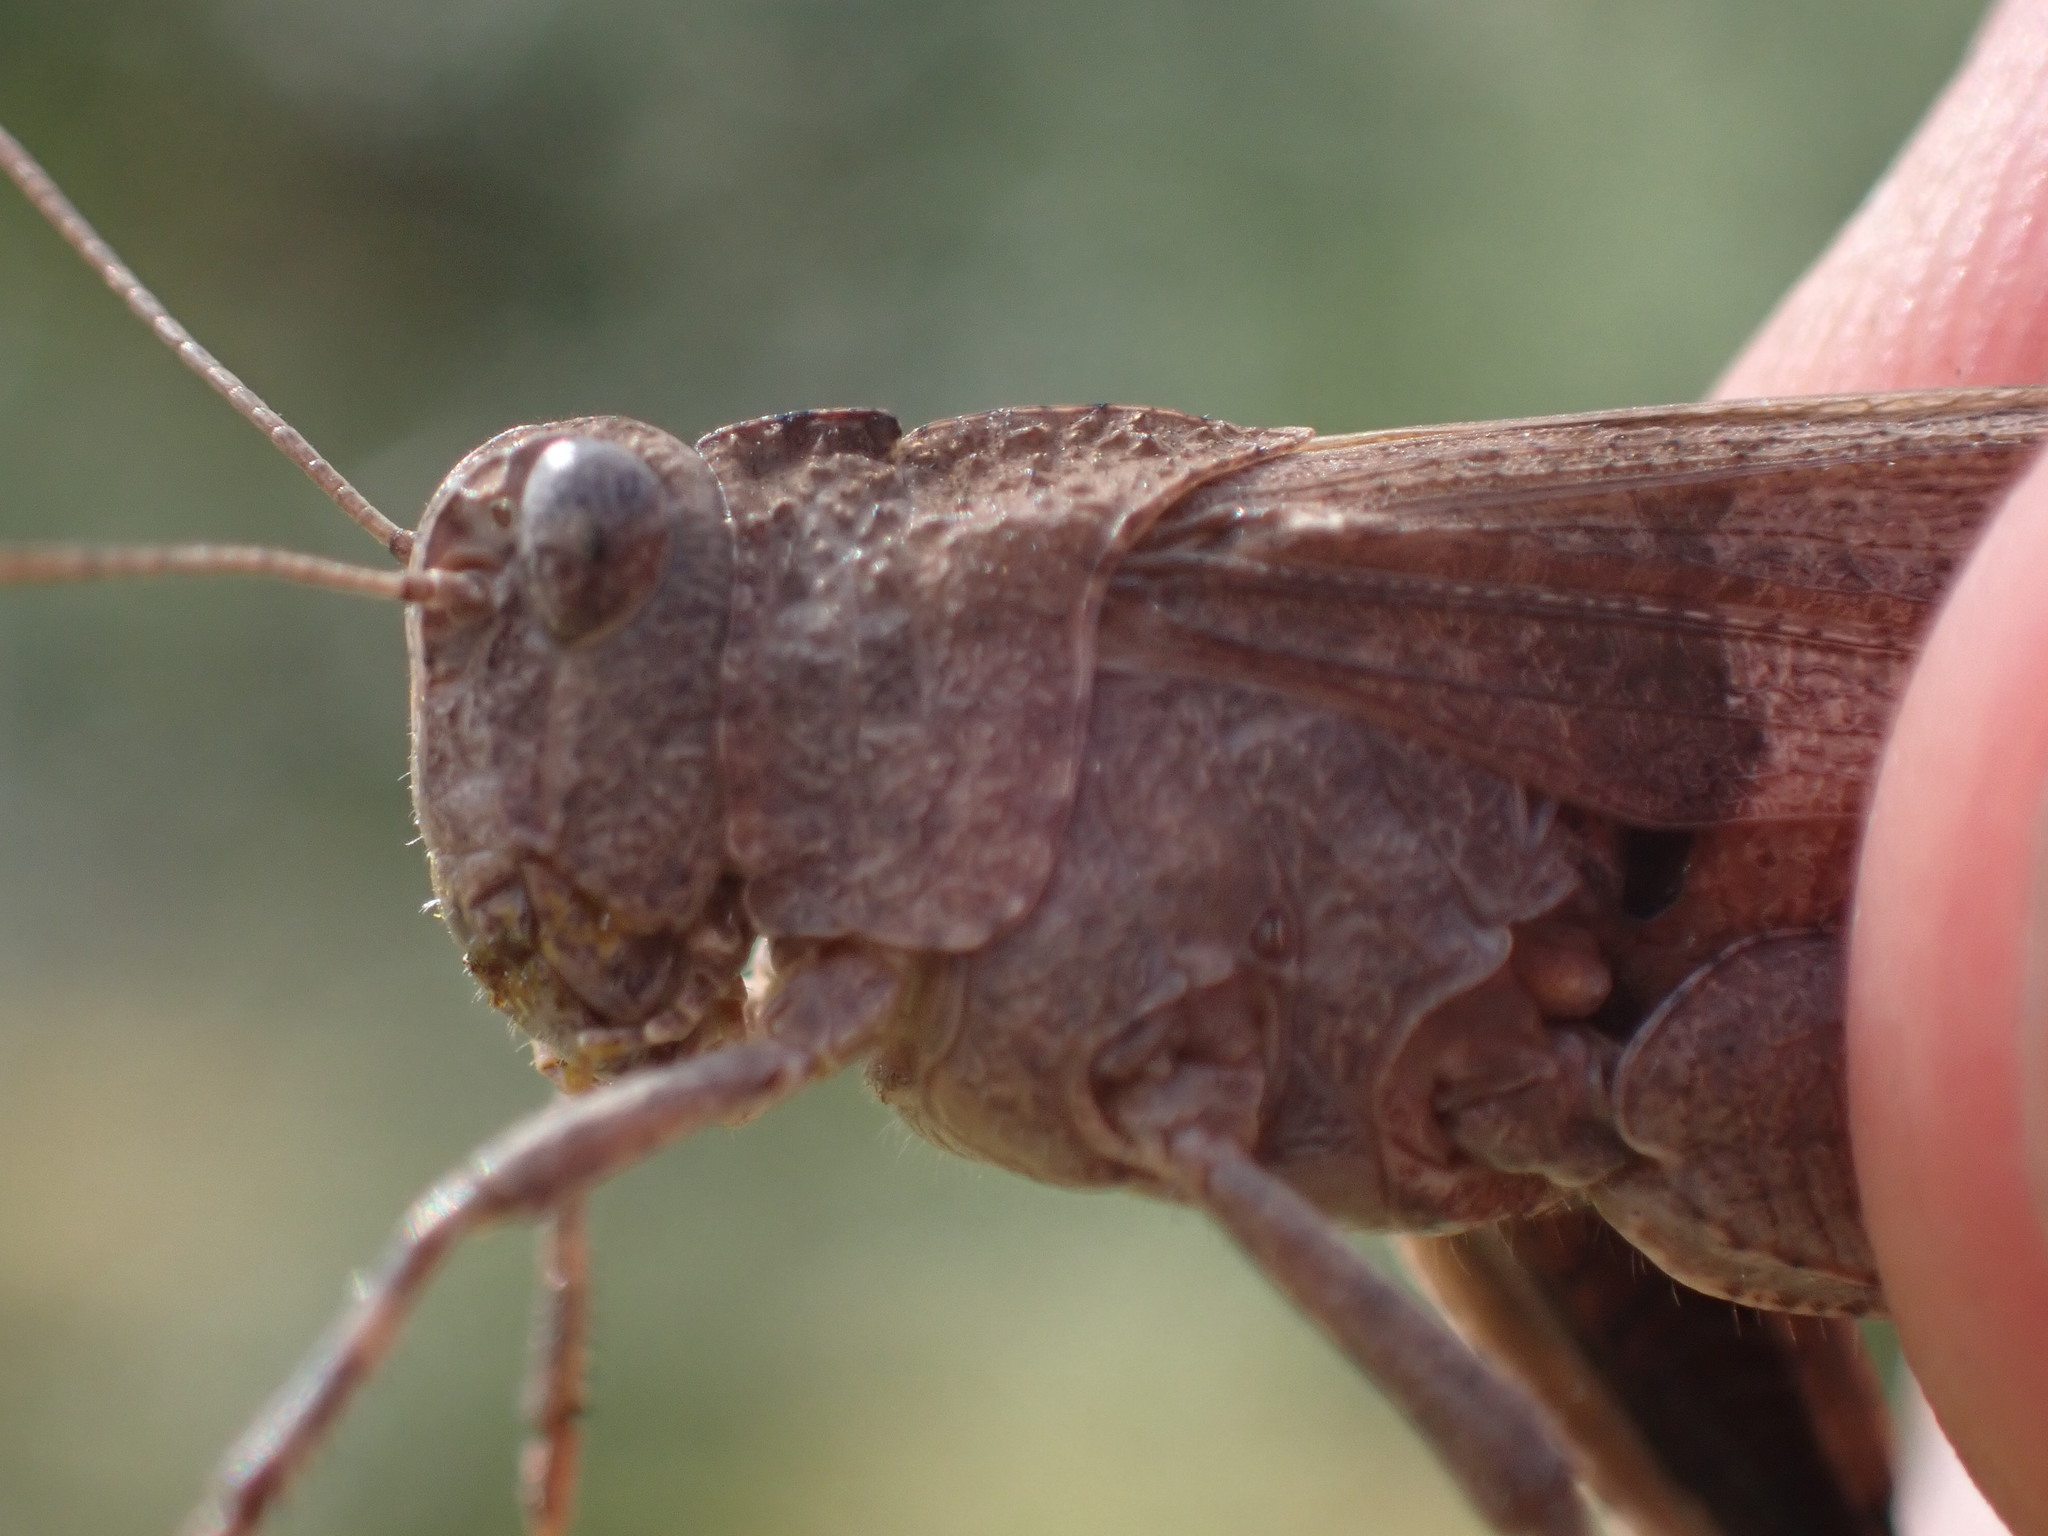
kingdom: Animalia
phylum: Arthropoda
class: Insecta
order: Orthoptera
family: Acrididae
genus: Oedipoda
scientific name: Oedipoda caerulescens
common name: Blue-winged grasshopper
